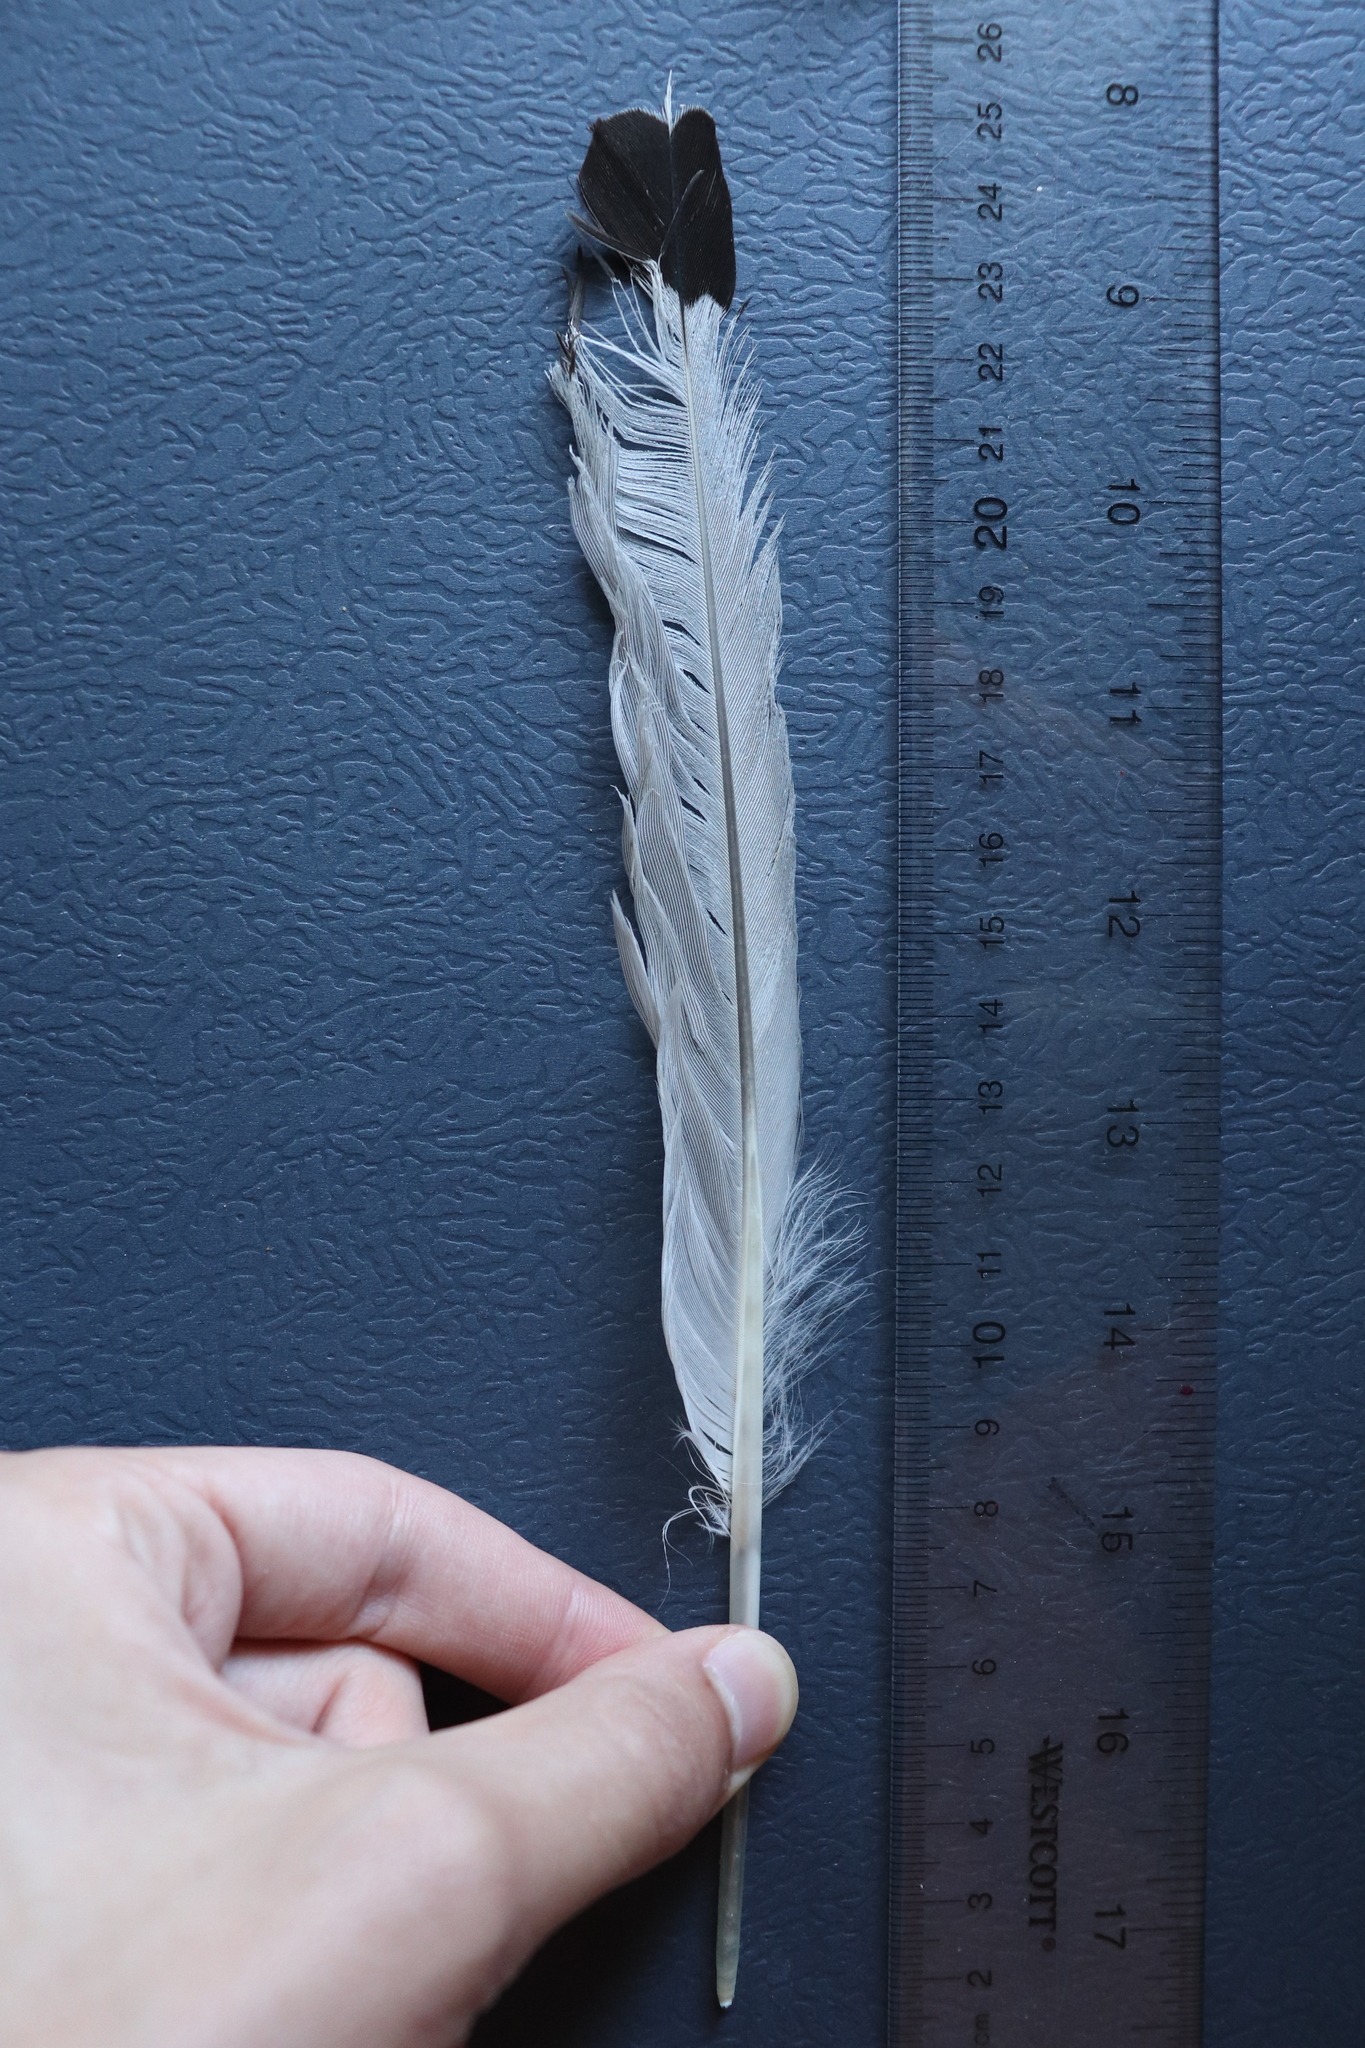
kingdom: Animalia
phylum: Chordata
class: Aves
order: Charadriiformes
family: Laridae
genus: Larus
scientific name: Larus delawarensis
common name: Ring-billed gull
